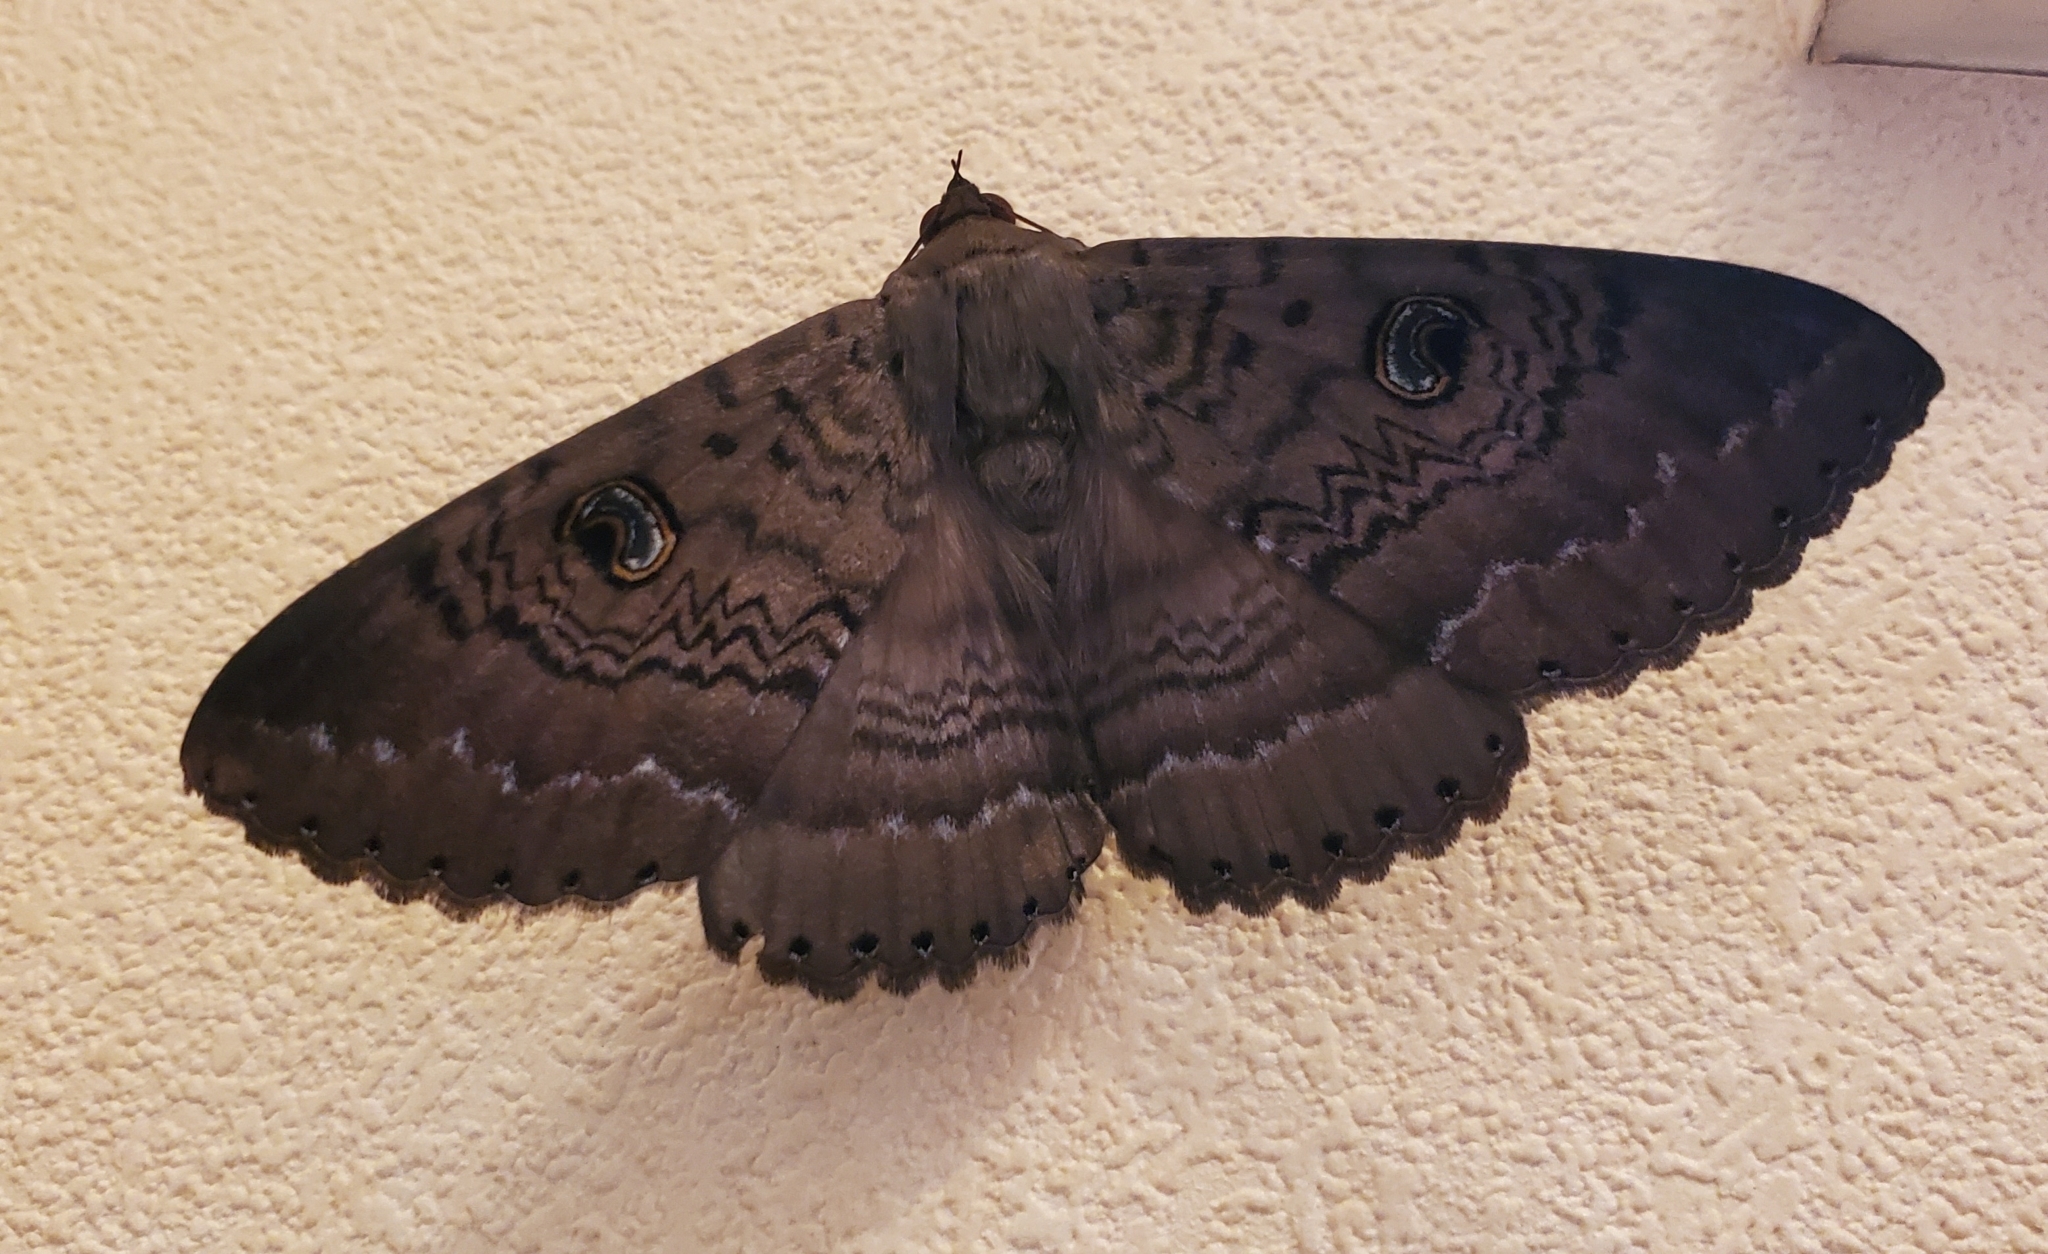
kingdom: Animalia
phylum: Arthropoda
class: Insecta
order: Lepidoptera
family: Erebidae
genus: Dasypodia
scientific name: Dasypodia cymatodes
